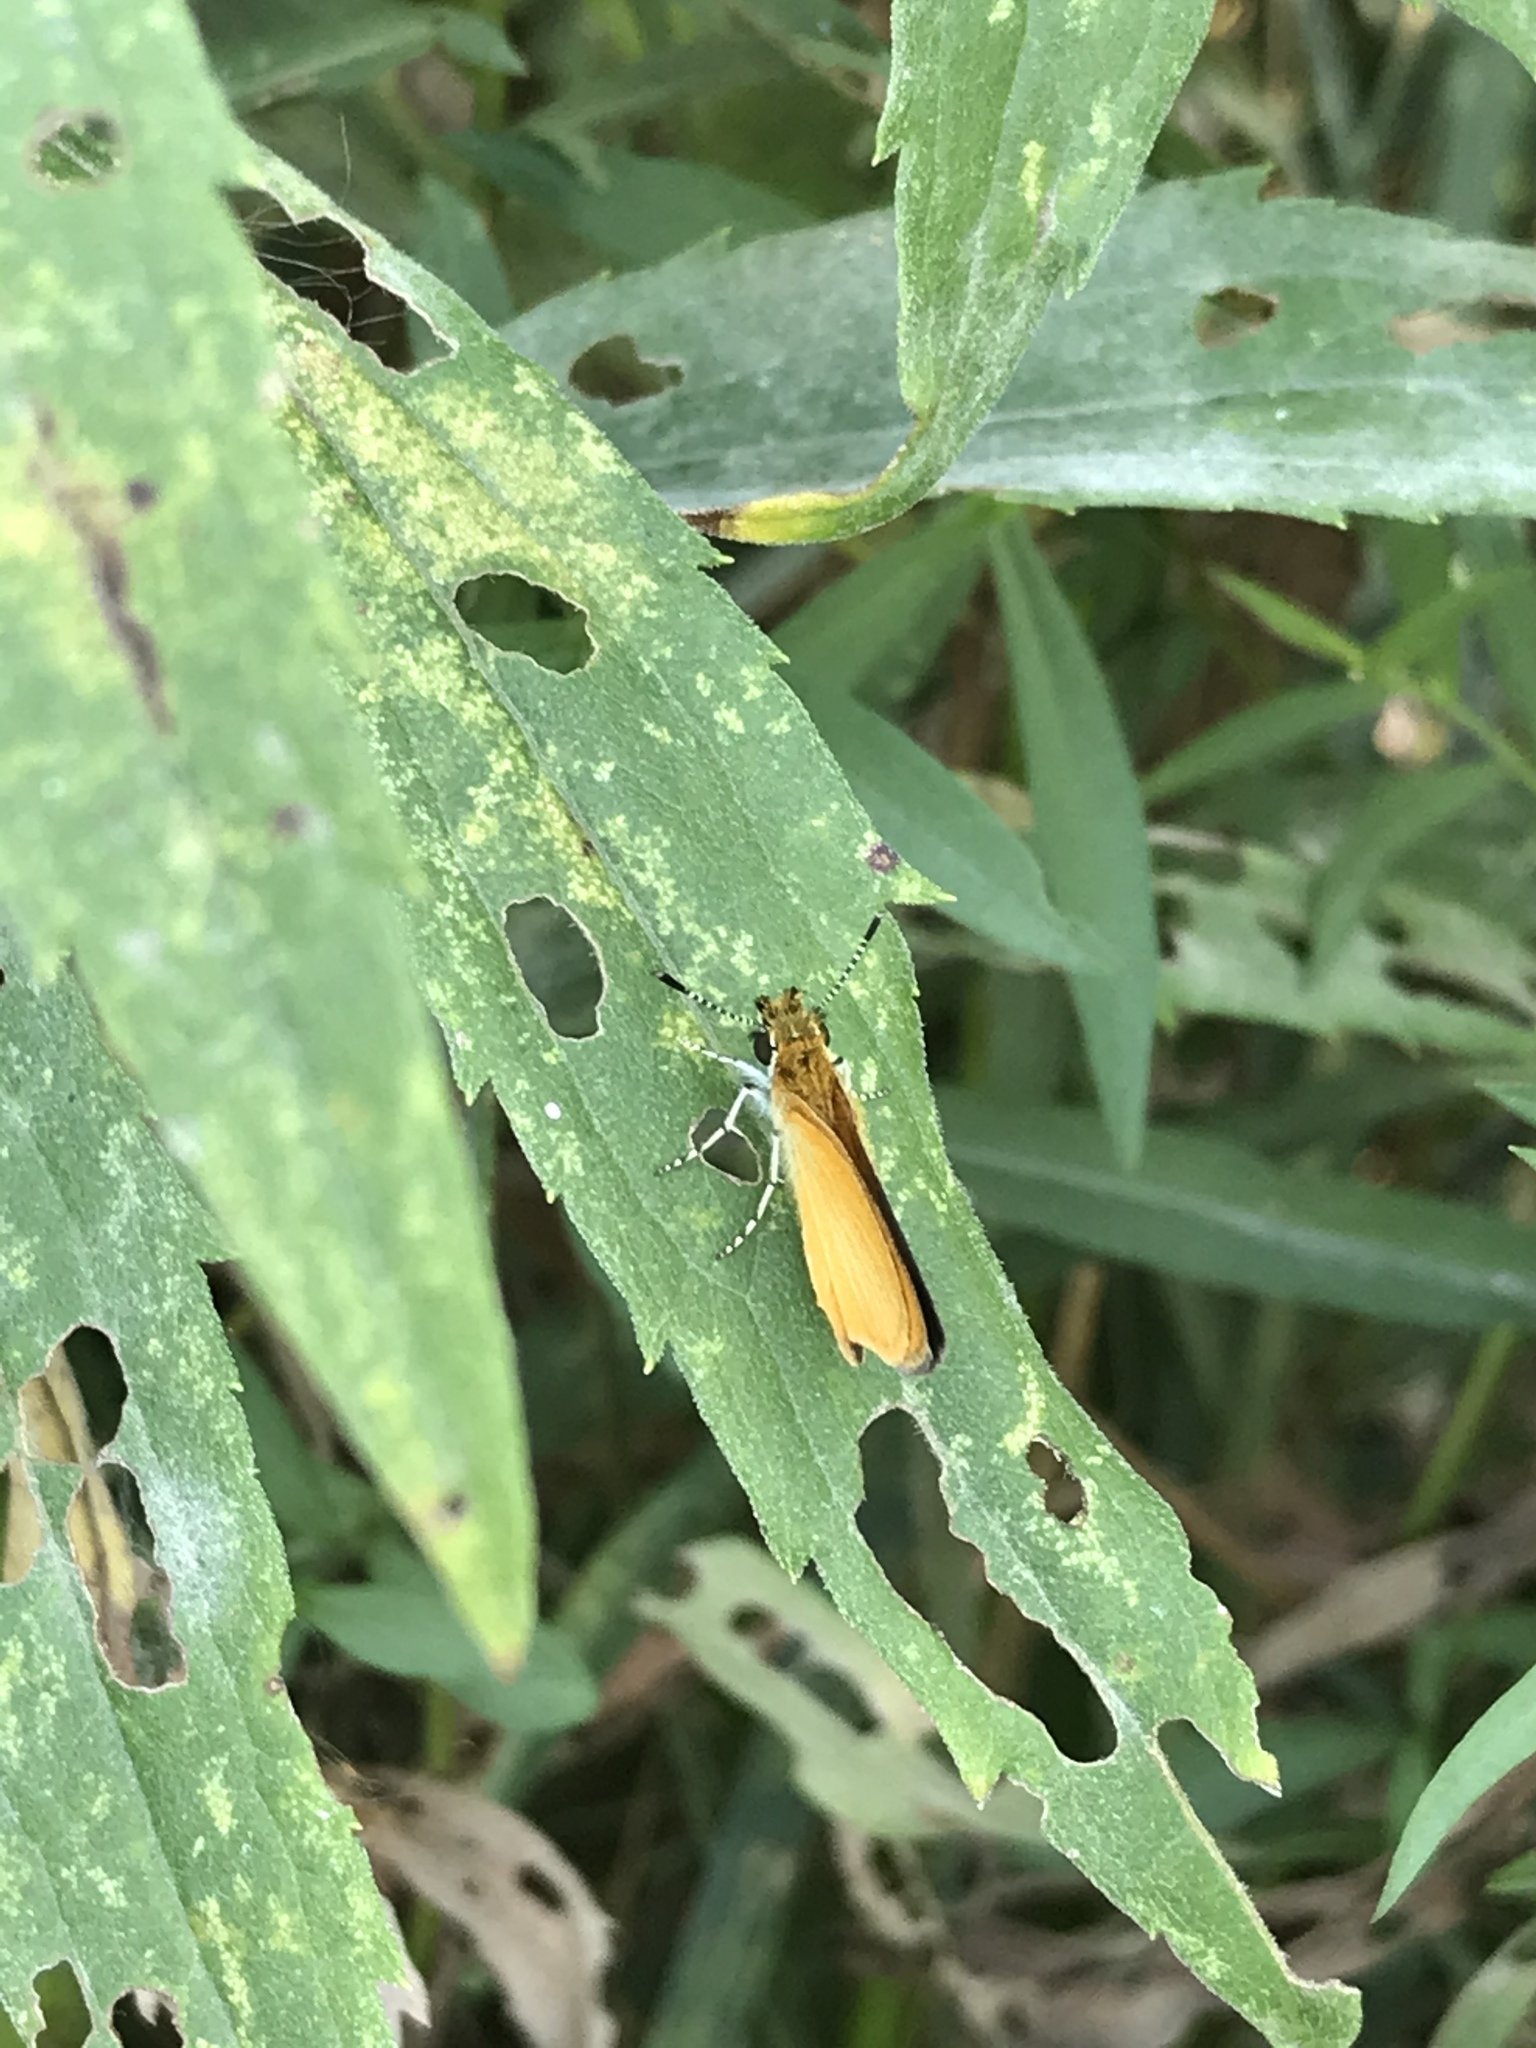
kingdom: Animalia
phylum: Arthropoda
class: Insecta
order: Lepidoptera
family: Hesperiidae
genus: Ancyloxypha
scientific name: Ancyloxypha numitor
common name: Least skipper
